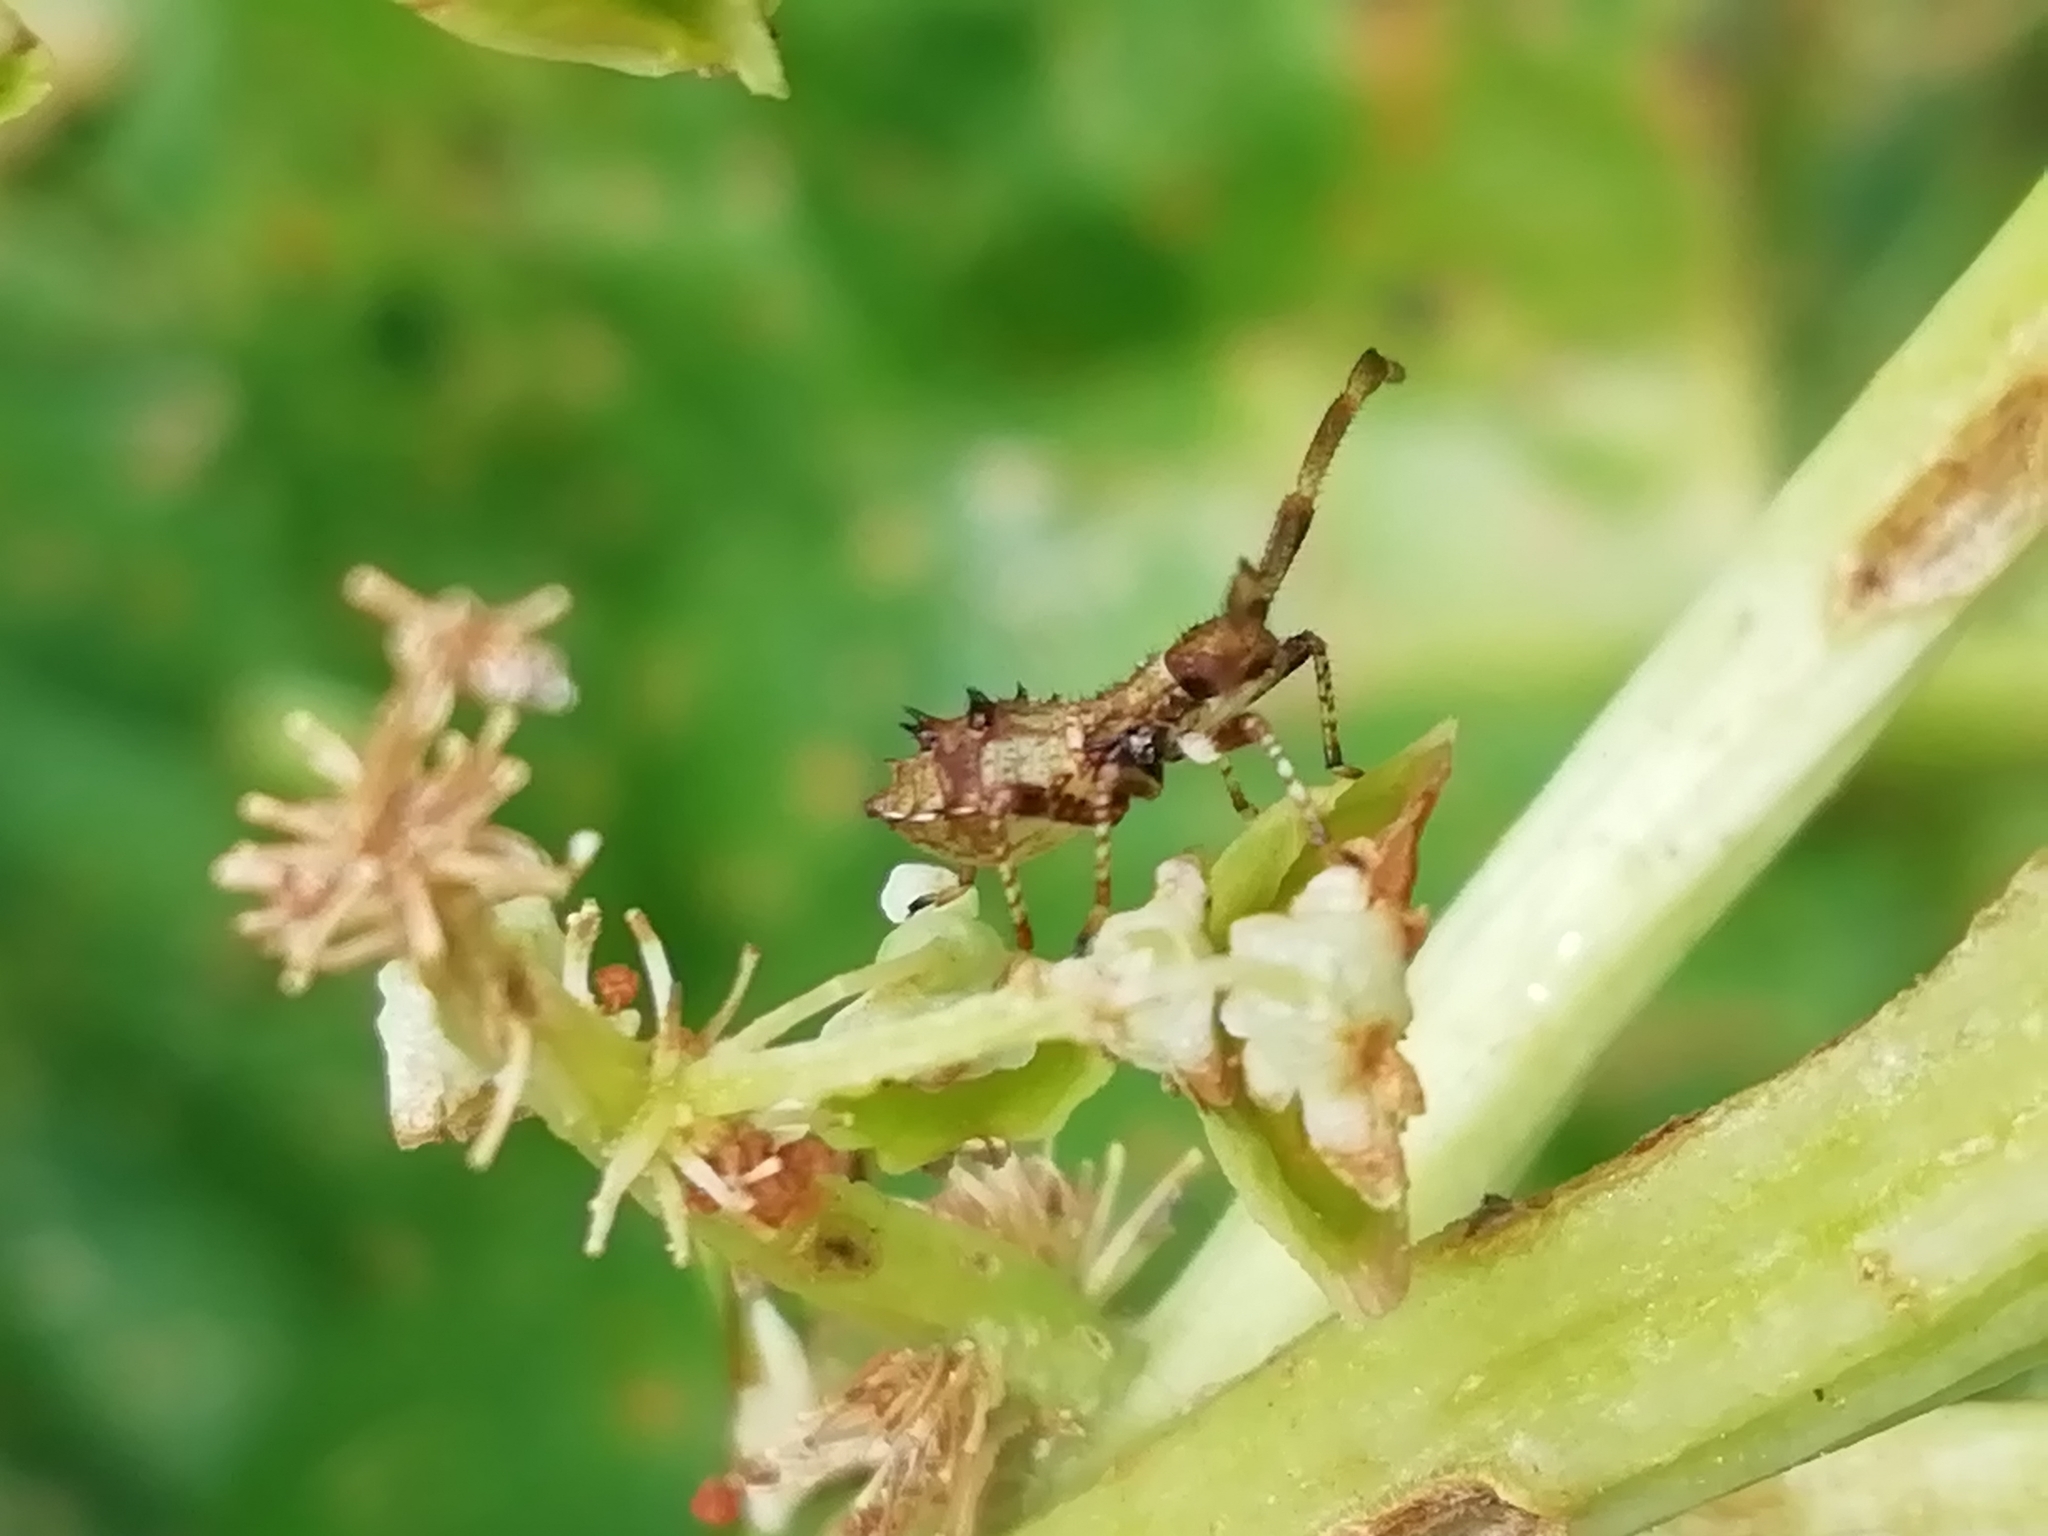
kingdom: Animalia
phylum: Arthropoda
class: Insecta
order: Hemiptera
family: Coreidae
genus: Coreus
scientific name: Coreus marginatus
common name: Dock bug
